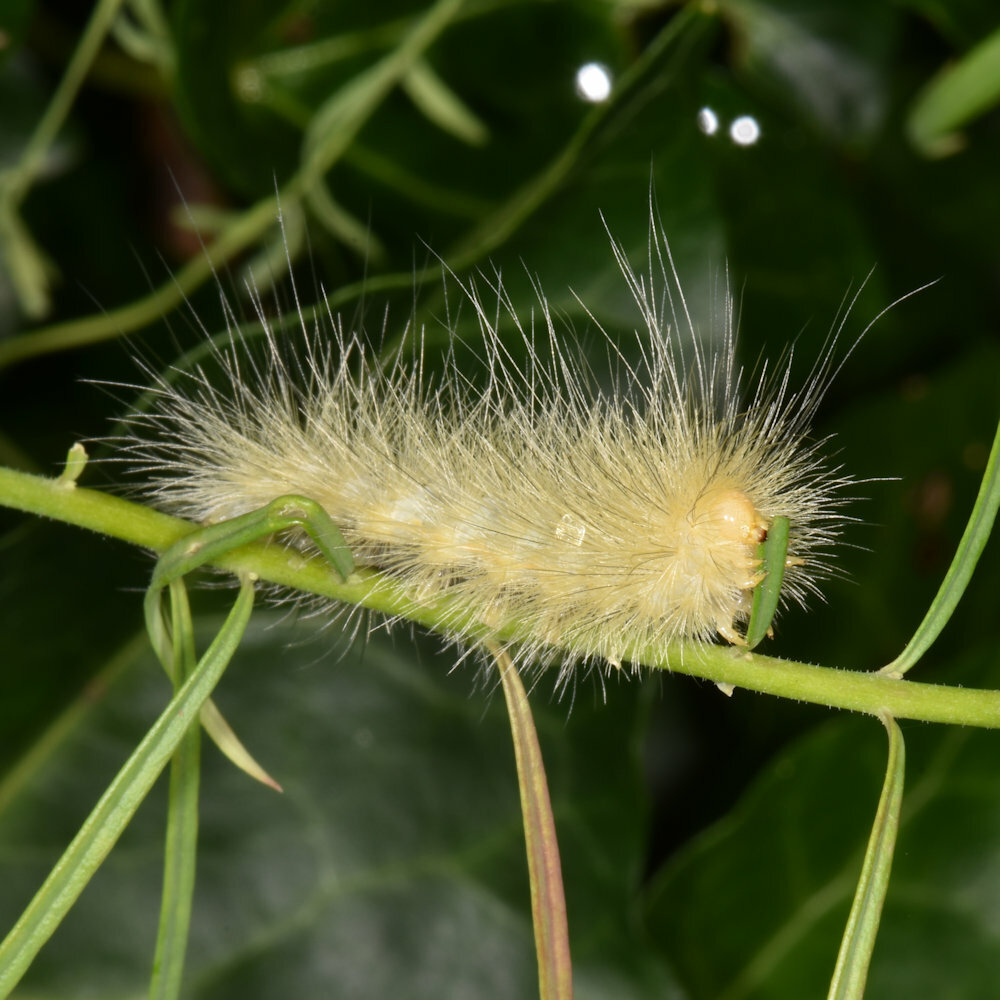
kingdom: Animalia
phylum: Arthropoda
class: Insecta
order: Lepidoptera
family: Erebidae
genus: Spilosoma
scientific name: Spilosoma virginica
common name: Virginia tiger moth
